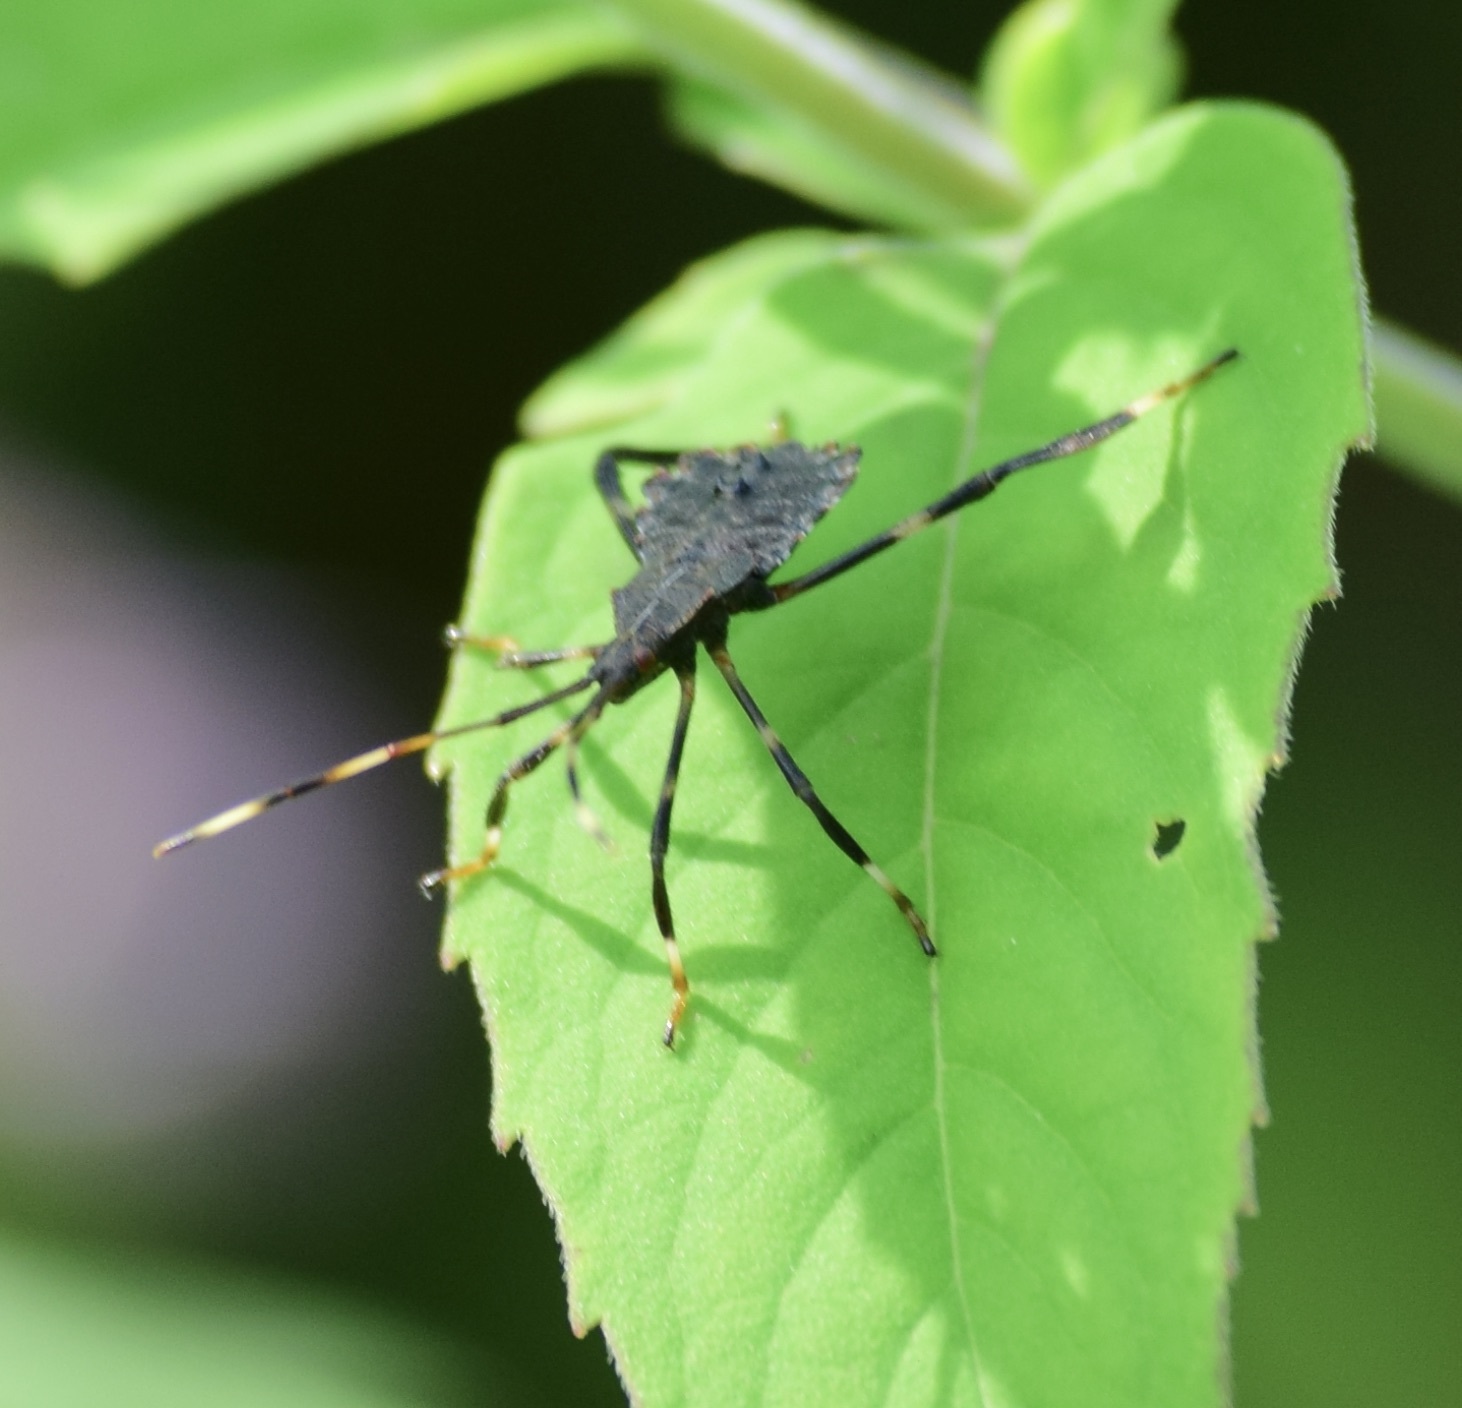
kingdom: Animalia
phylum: Arthropoda
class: Insecta
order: Hemiptera
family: Coreidae
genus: Acanthocephala
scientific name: Acanthocephala terminalis
